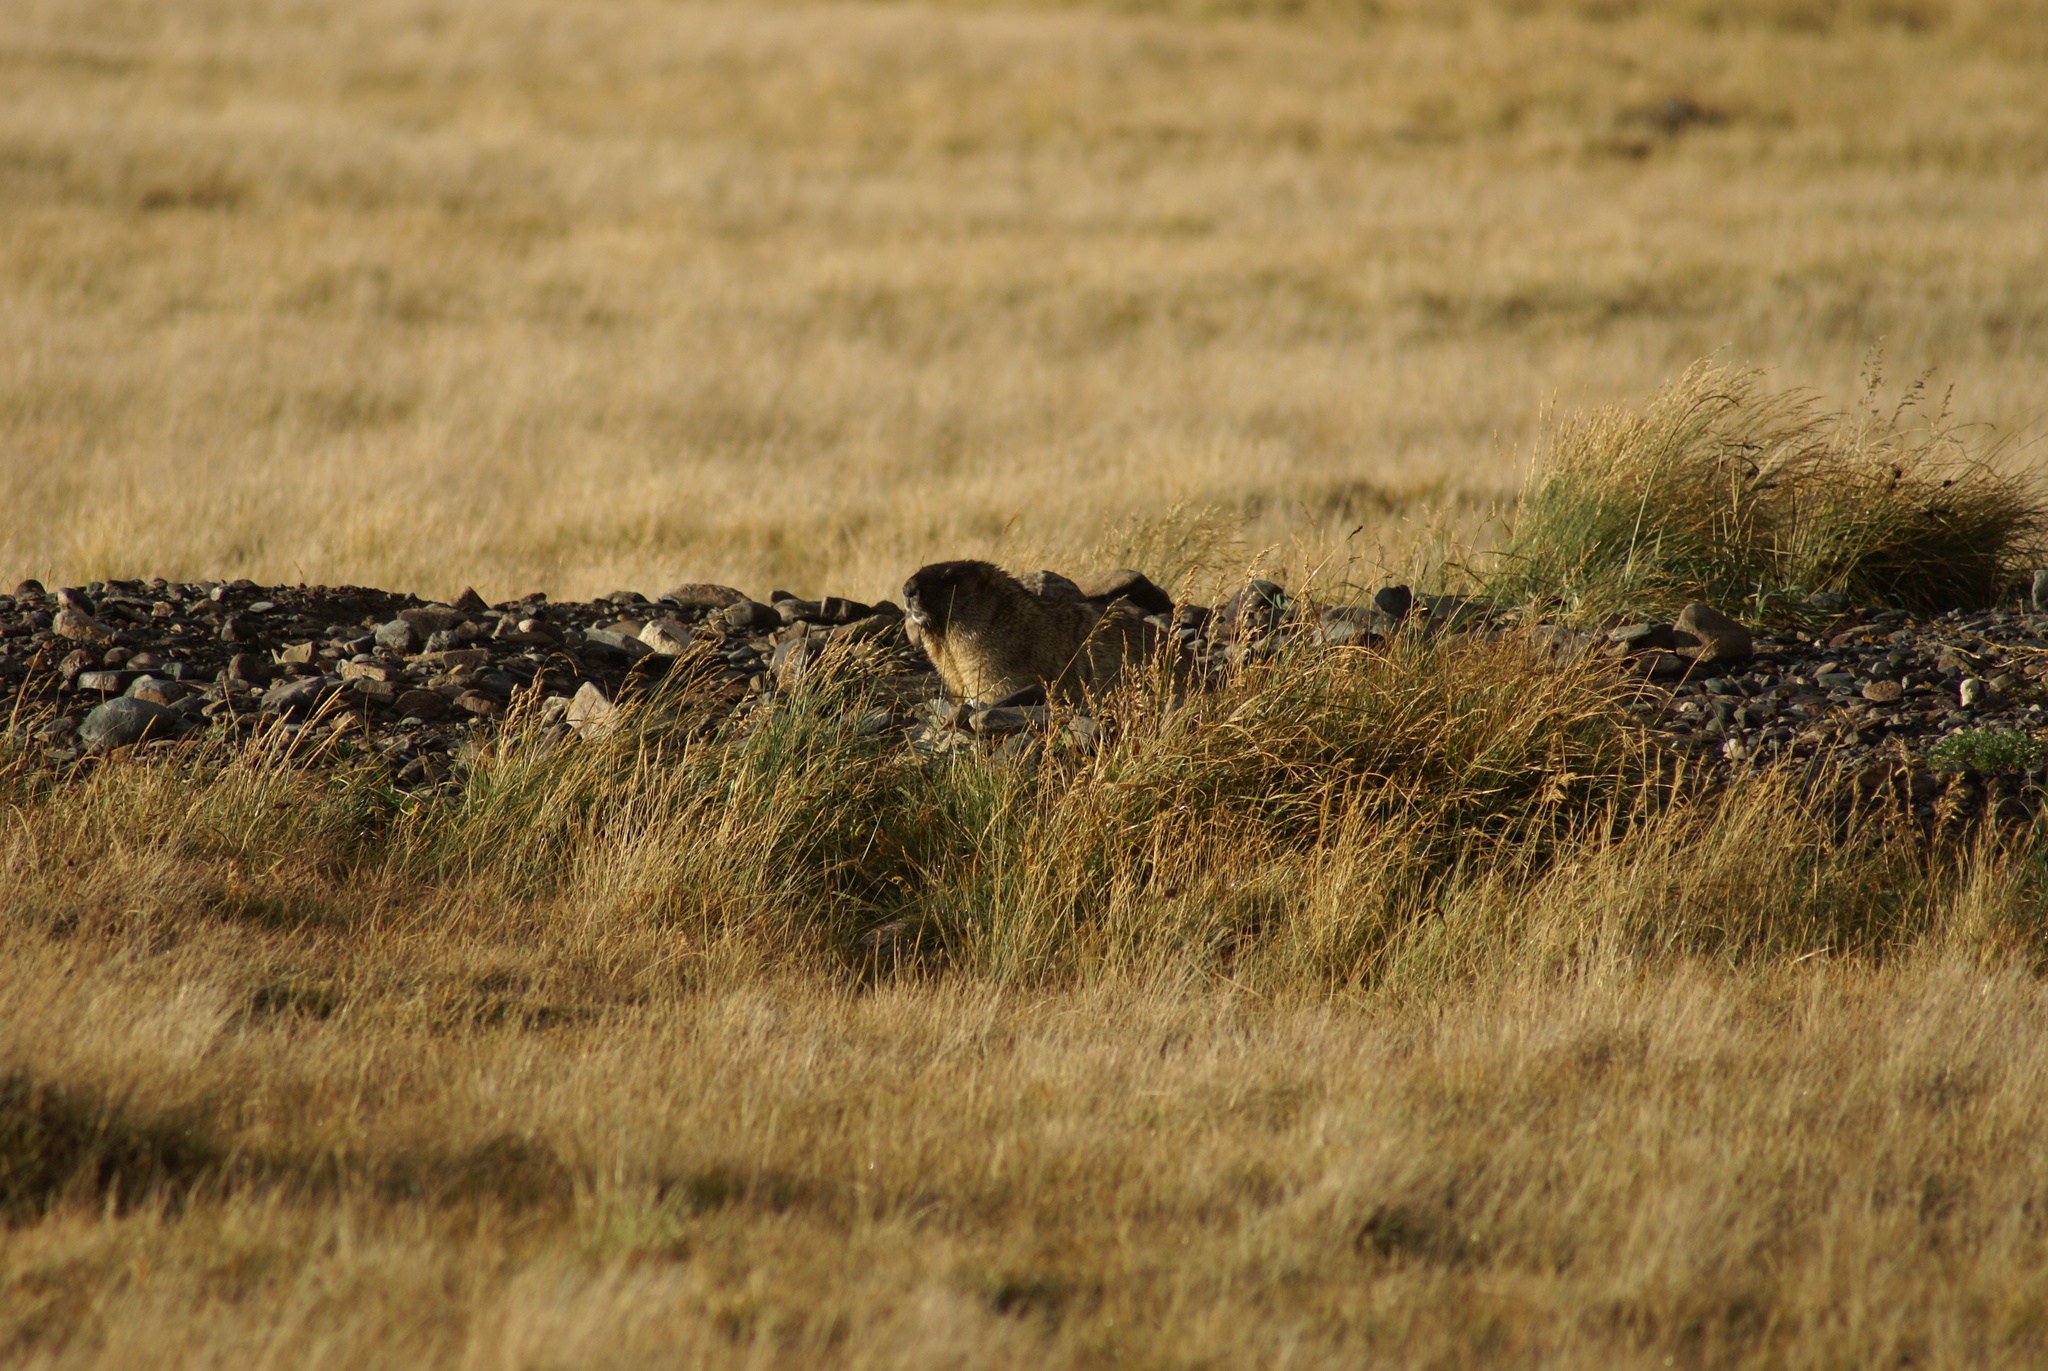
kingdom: Animalia
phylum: Chordata
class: Mammalia
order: Rodentia
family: Sciuridae
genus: Marmota
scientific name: Marmota baibacina
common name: Gray marmot
